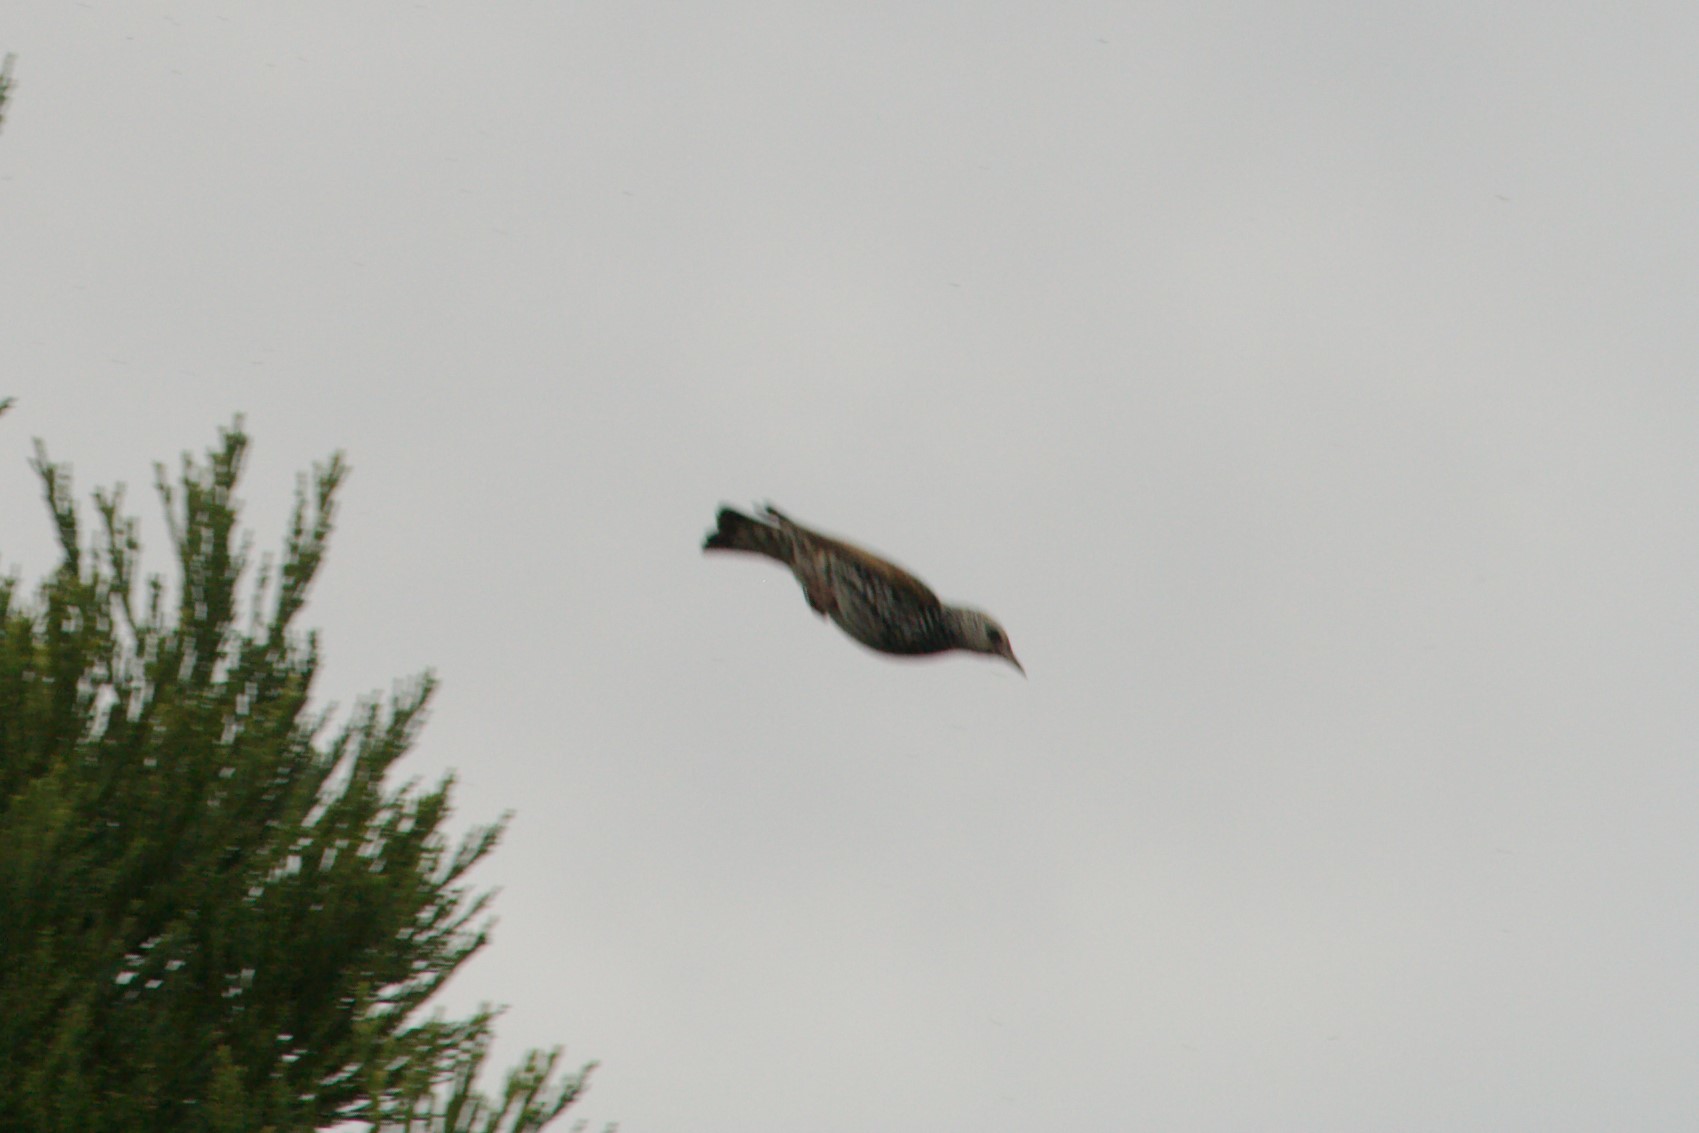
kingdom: Animalia
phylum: Chordata
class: Aves
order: Passeriformes
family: Sturnidae
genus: Sturnus
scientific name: Sturnus vulgaris
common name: Common starling
